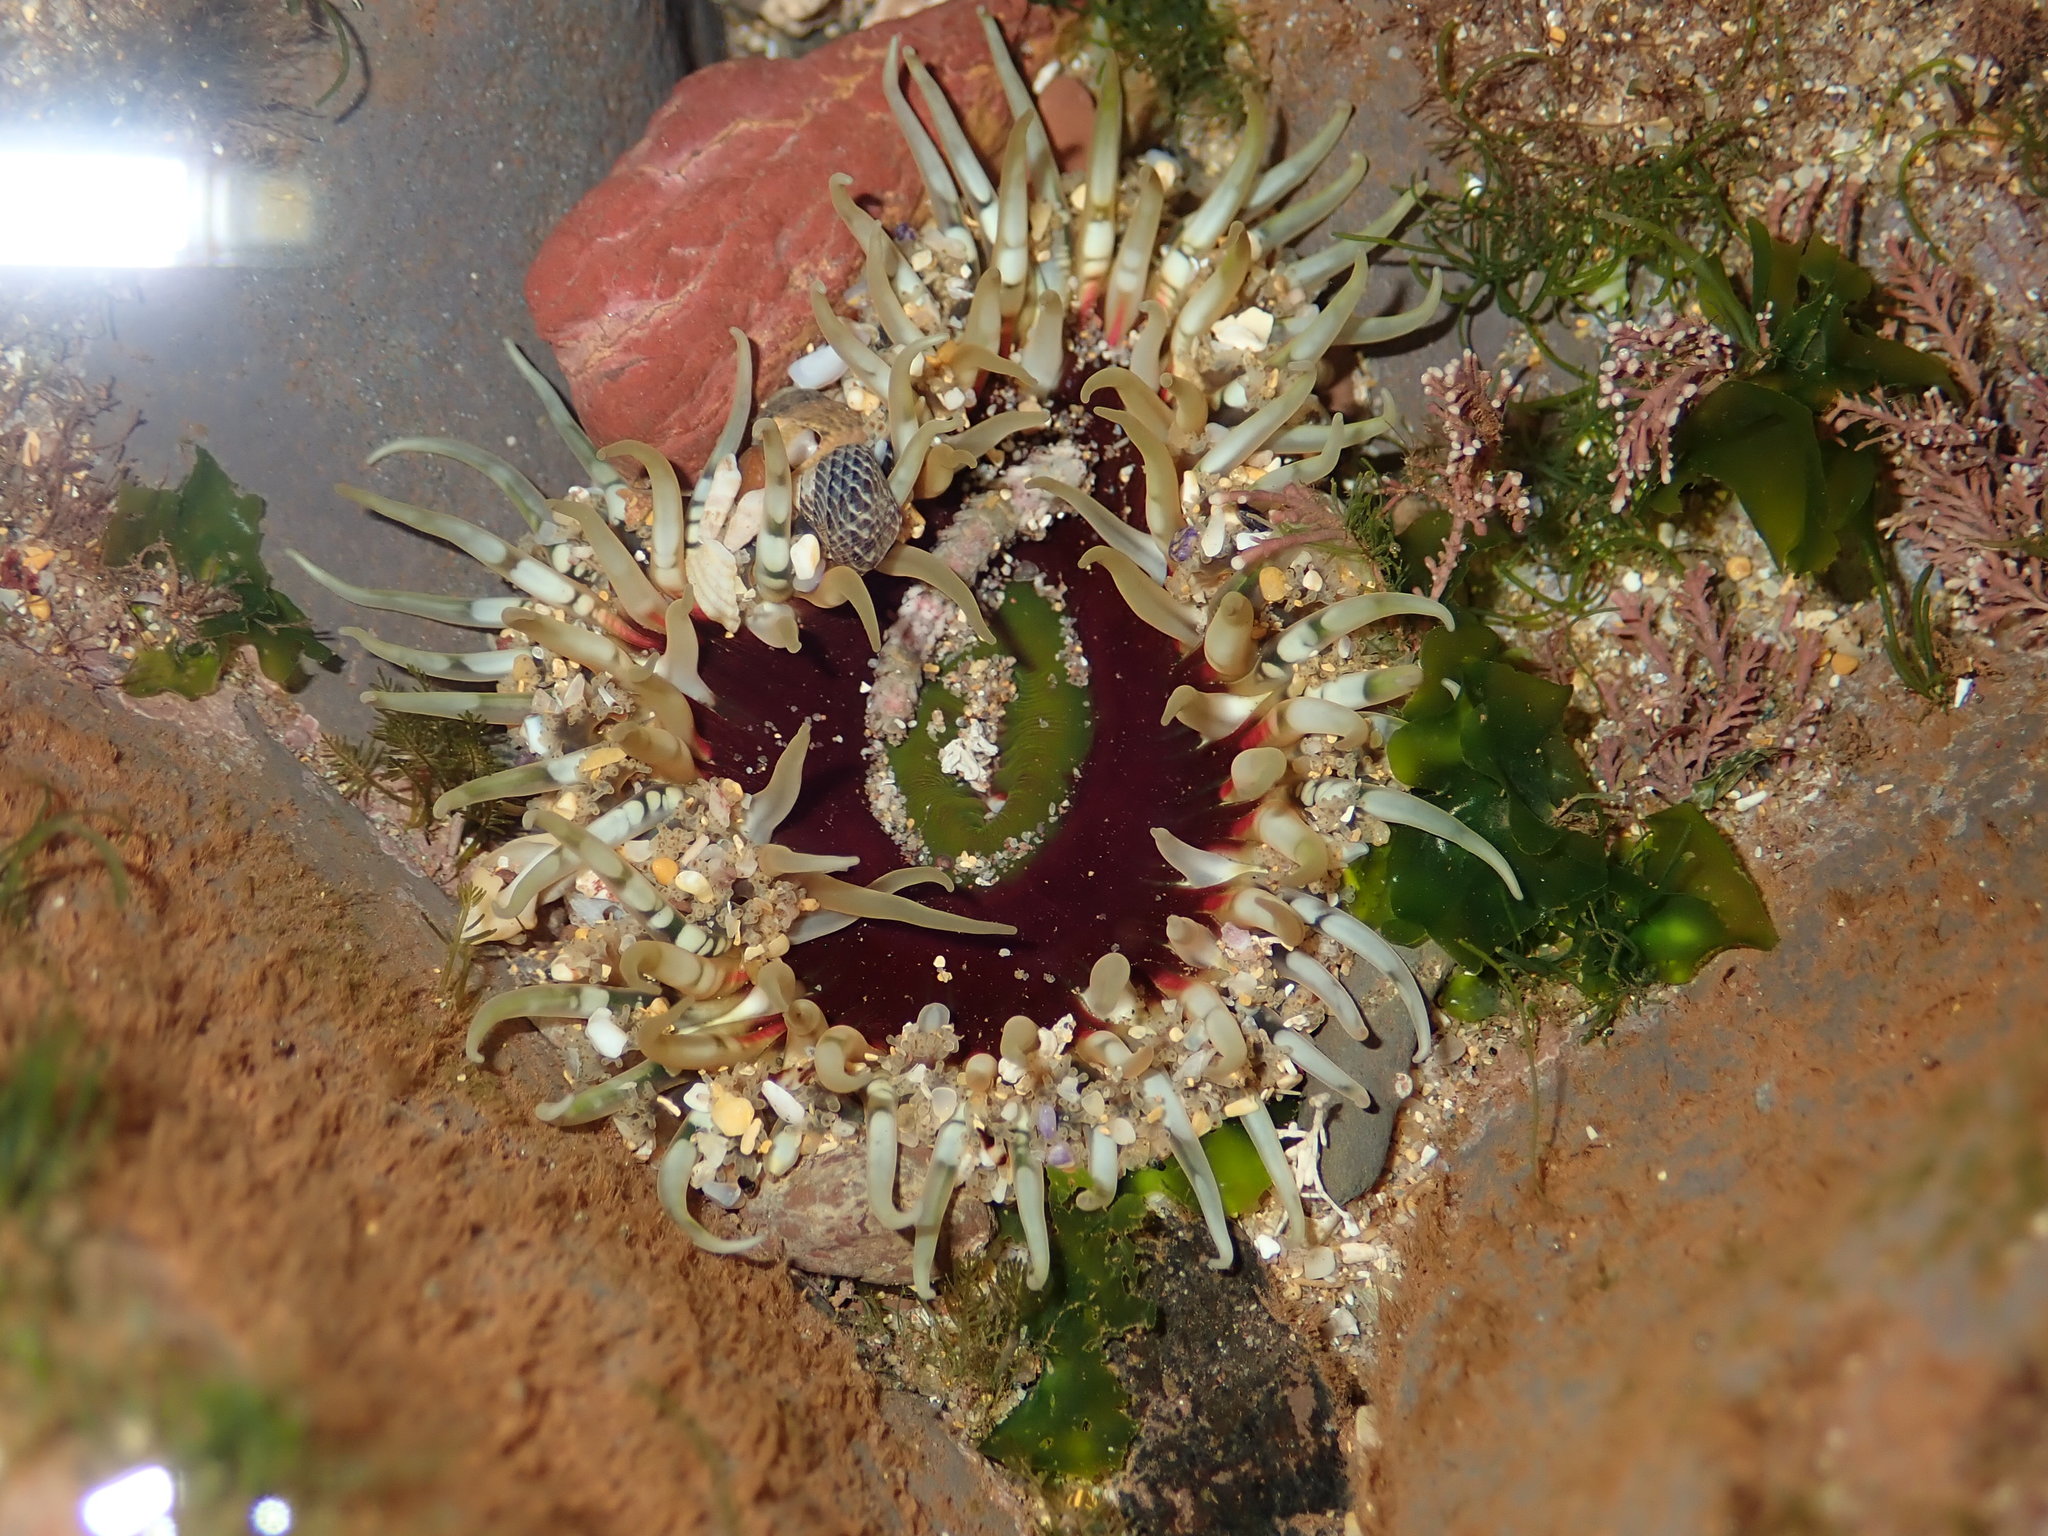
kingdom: Animalia
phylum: Cnidaria
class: Anthozoa
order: Actiniaria
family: Actiniidae
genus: Oulactis
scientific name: Oulactis muscosa
